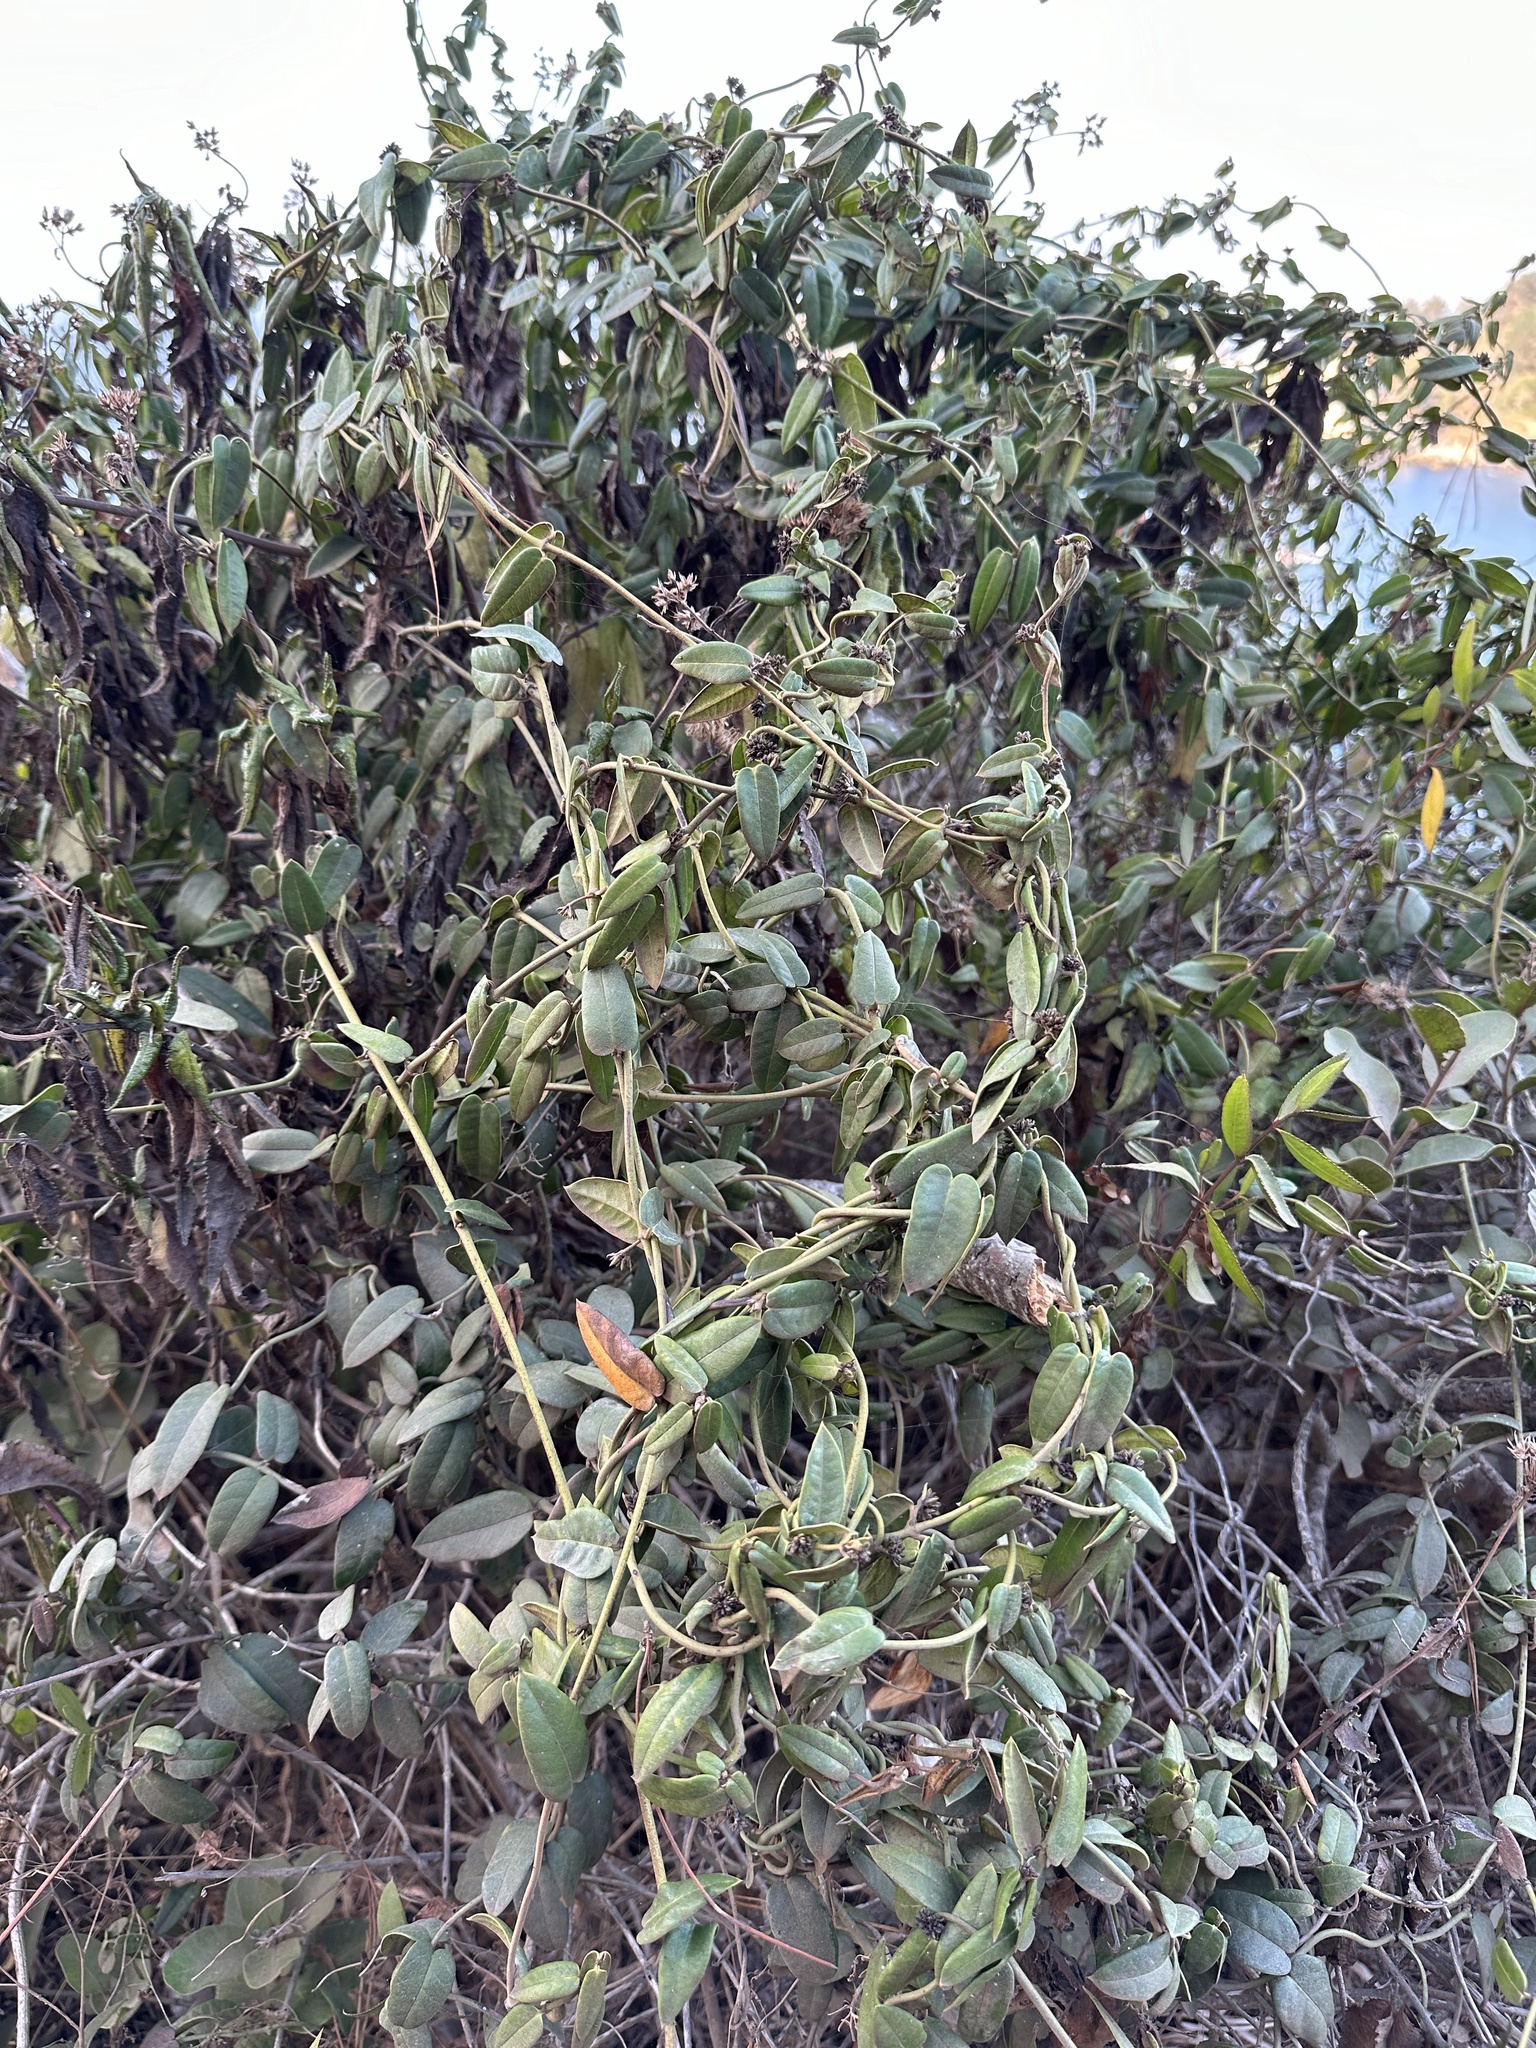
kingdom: Plantae
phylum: Tracheophyta
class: Magnoliopsida
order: Gentianales
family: Apocynaceae
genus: Diplolepis
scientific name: Diplolepis menziesii
